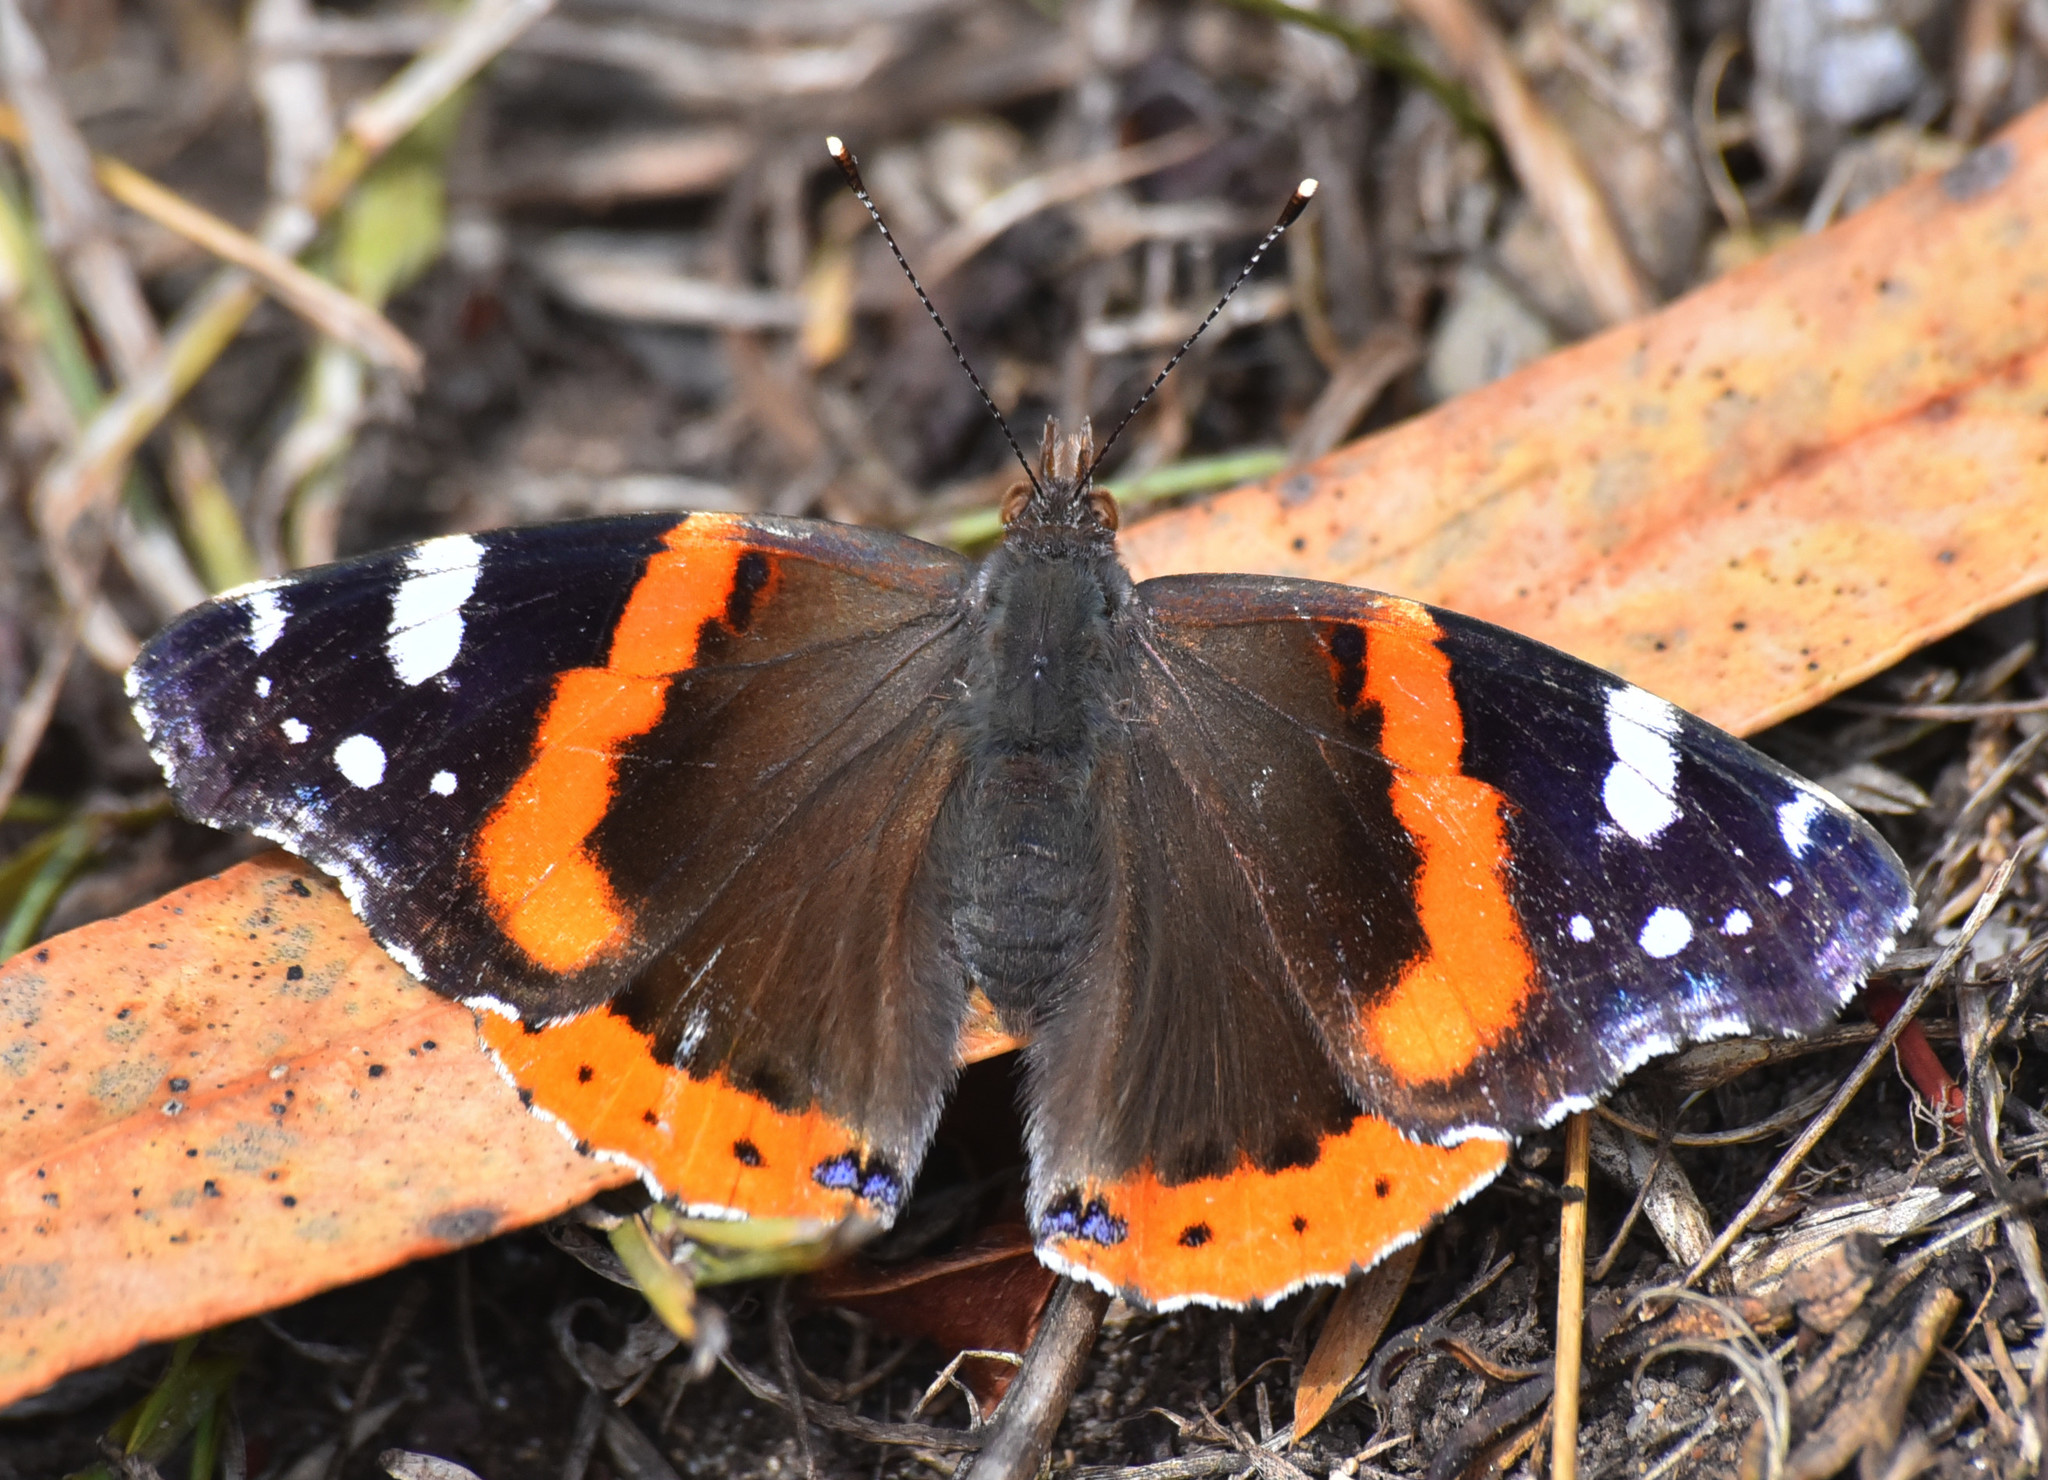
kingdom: Animalia
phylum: Arthropoda
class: Insecta
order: Lepidoptera
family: Nymphalidae
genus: Vanessa
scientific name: Vanessa atalanta
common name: Red admiral
